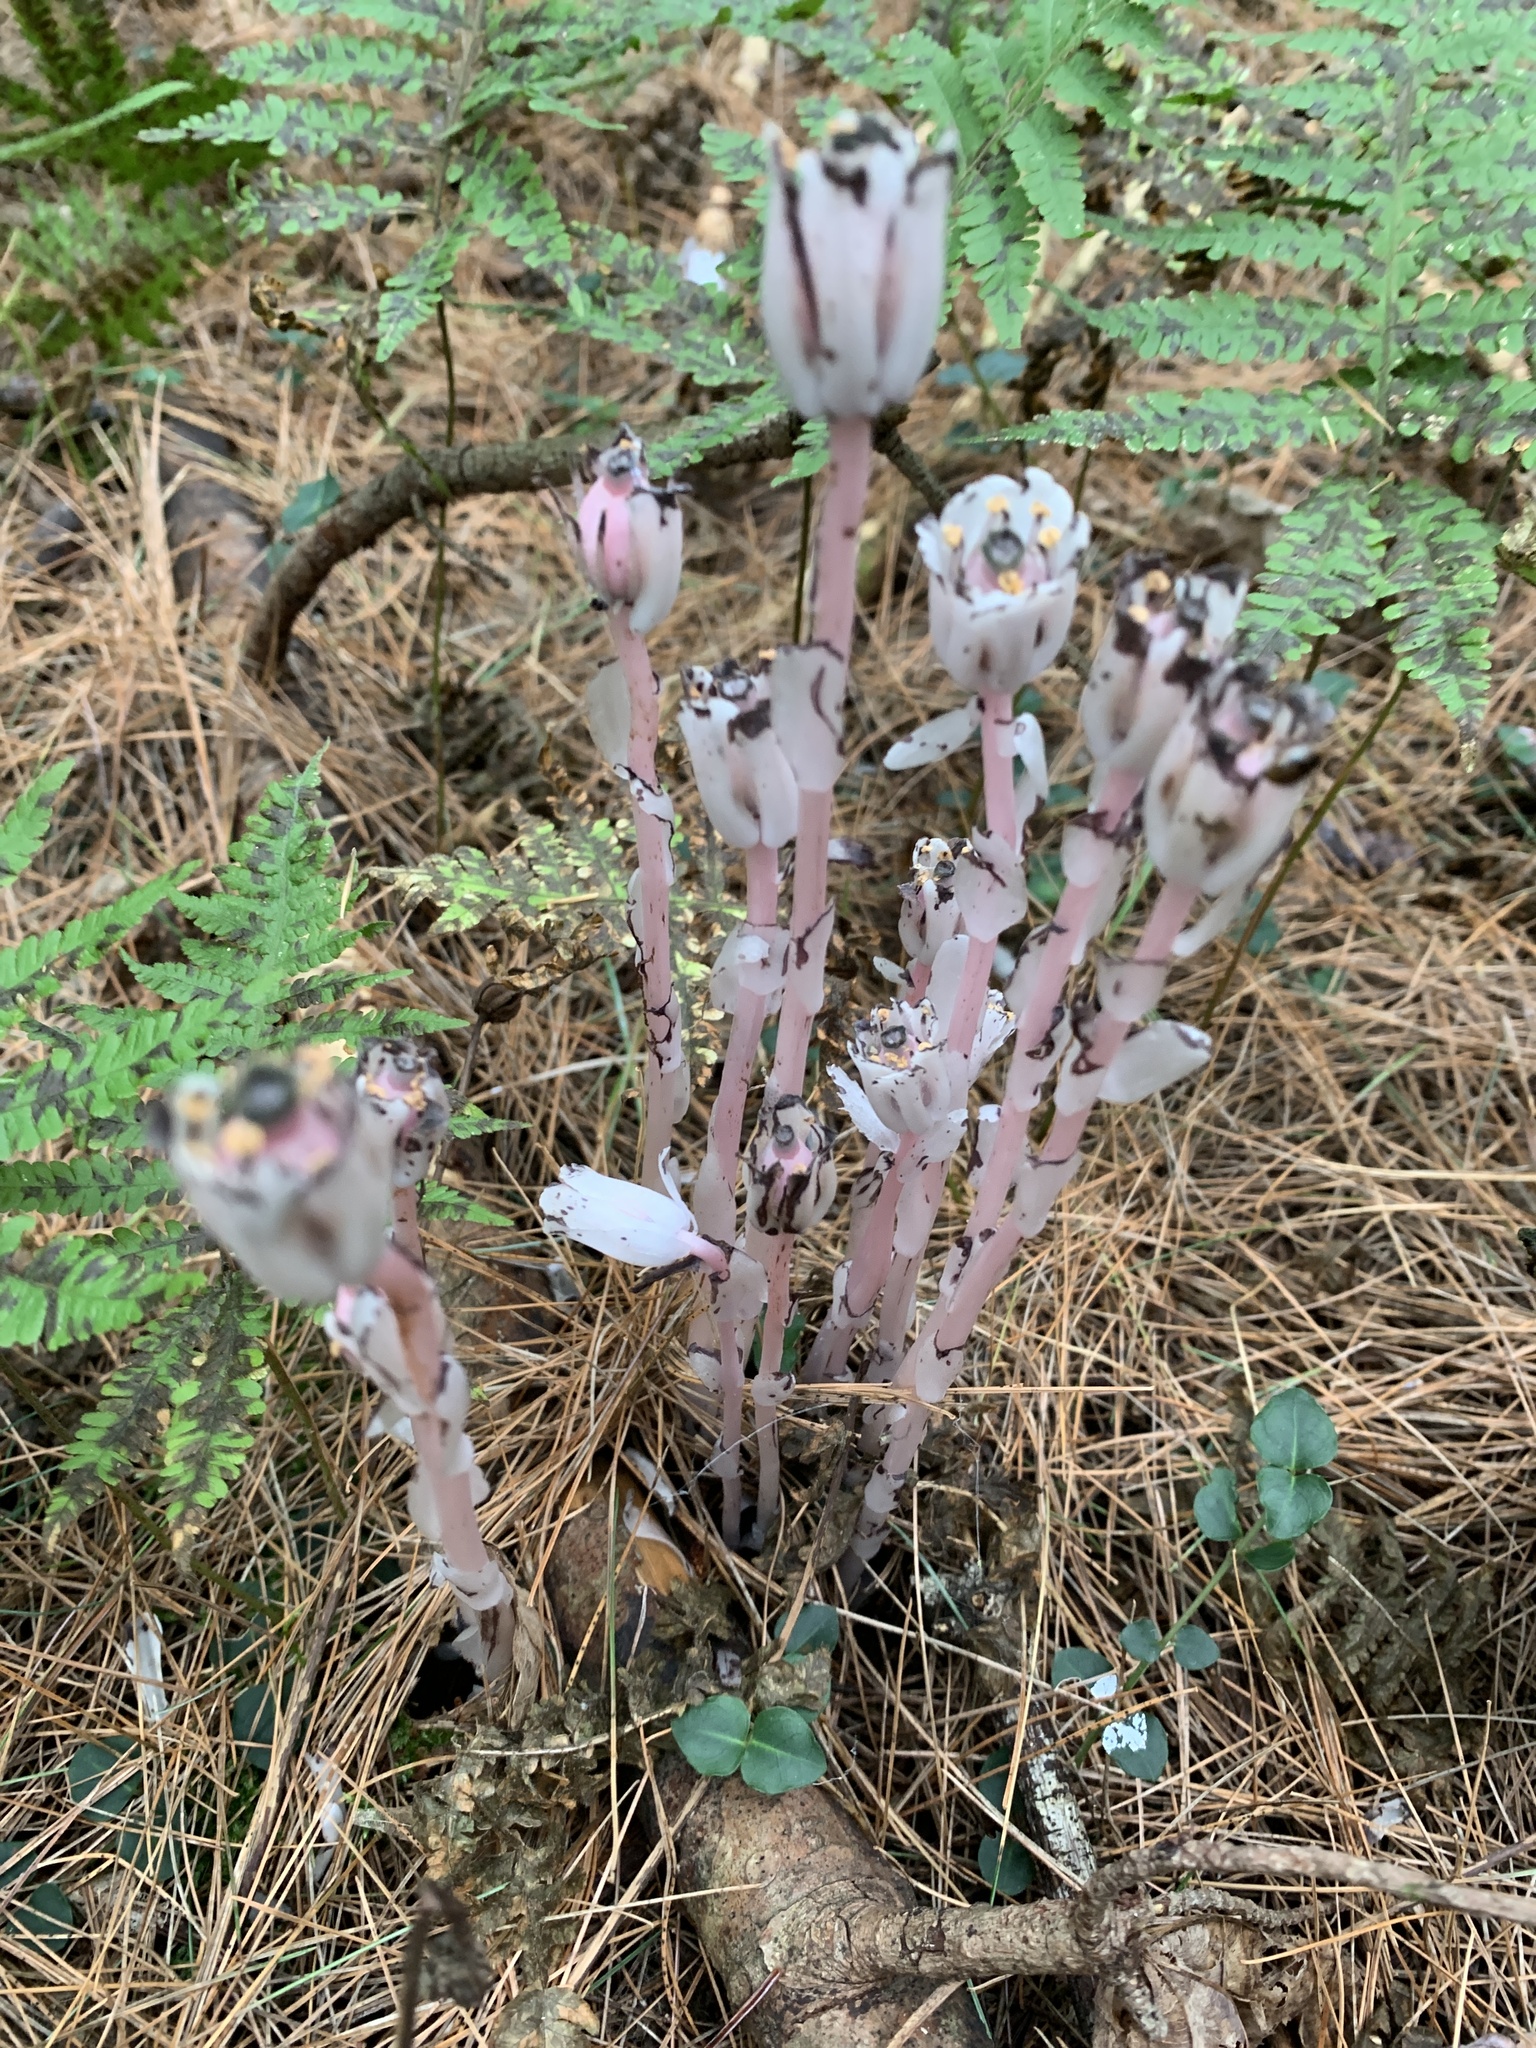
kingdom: Plantae
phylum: Tracheophyta
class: Magnoliopsida
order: Ericales
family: Ericaceae
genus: Monotropa
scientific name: Monotropa uniflora
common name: Convulsion root
